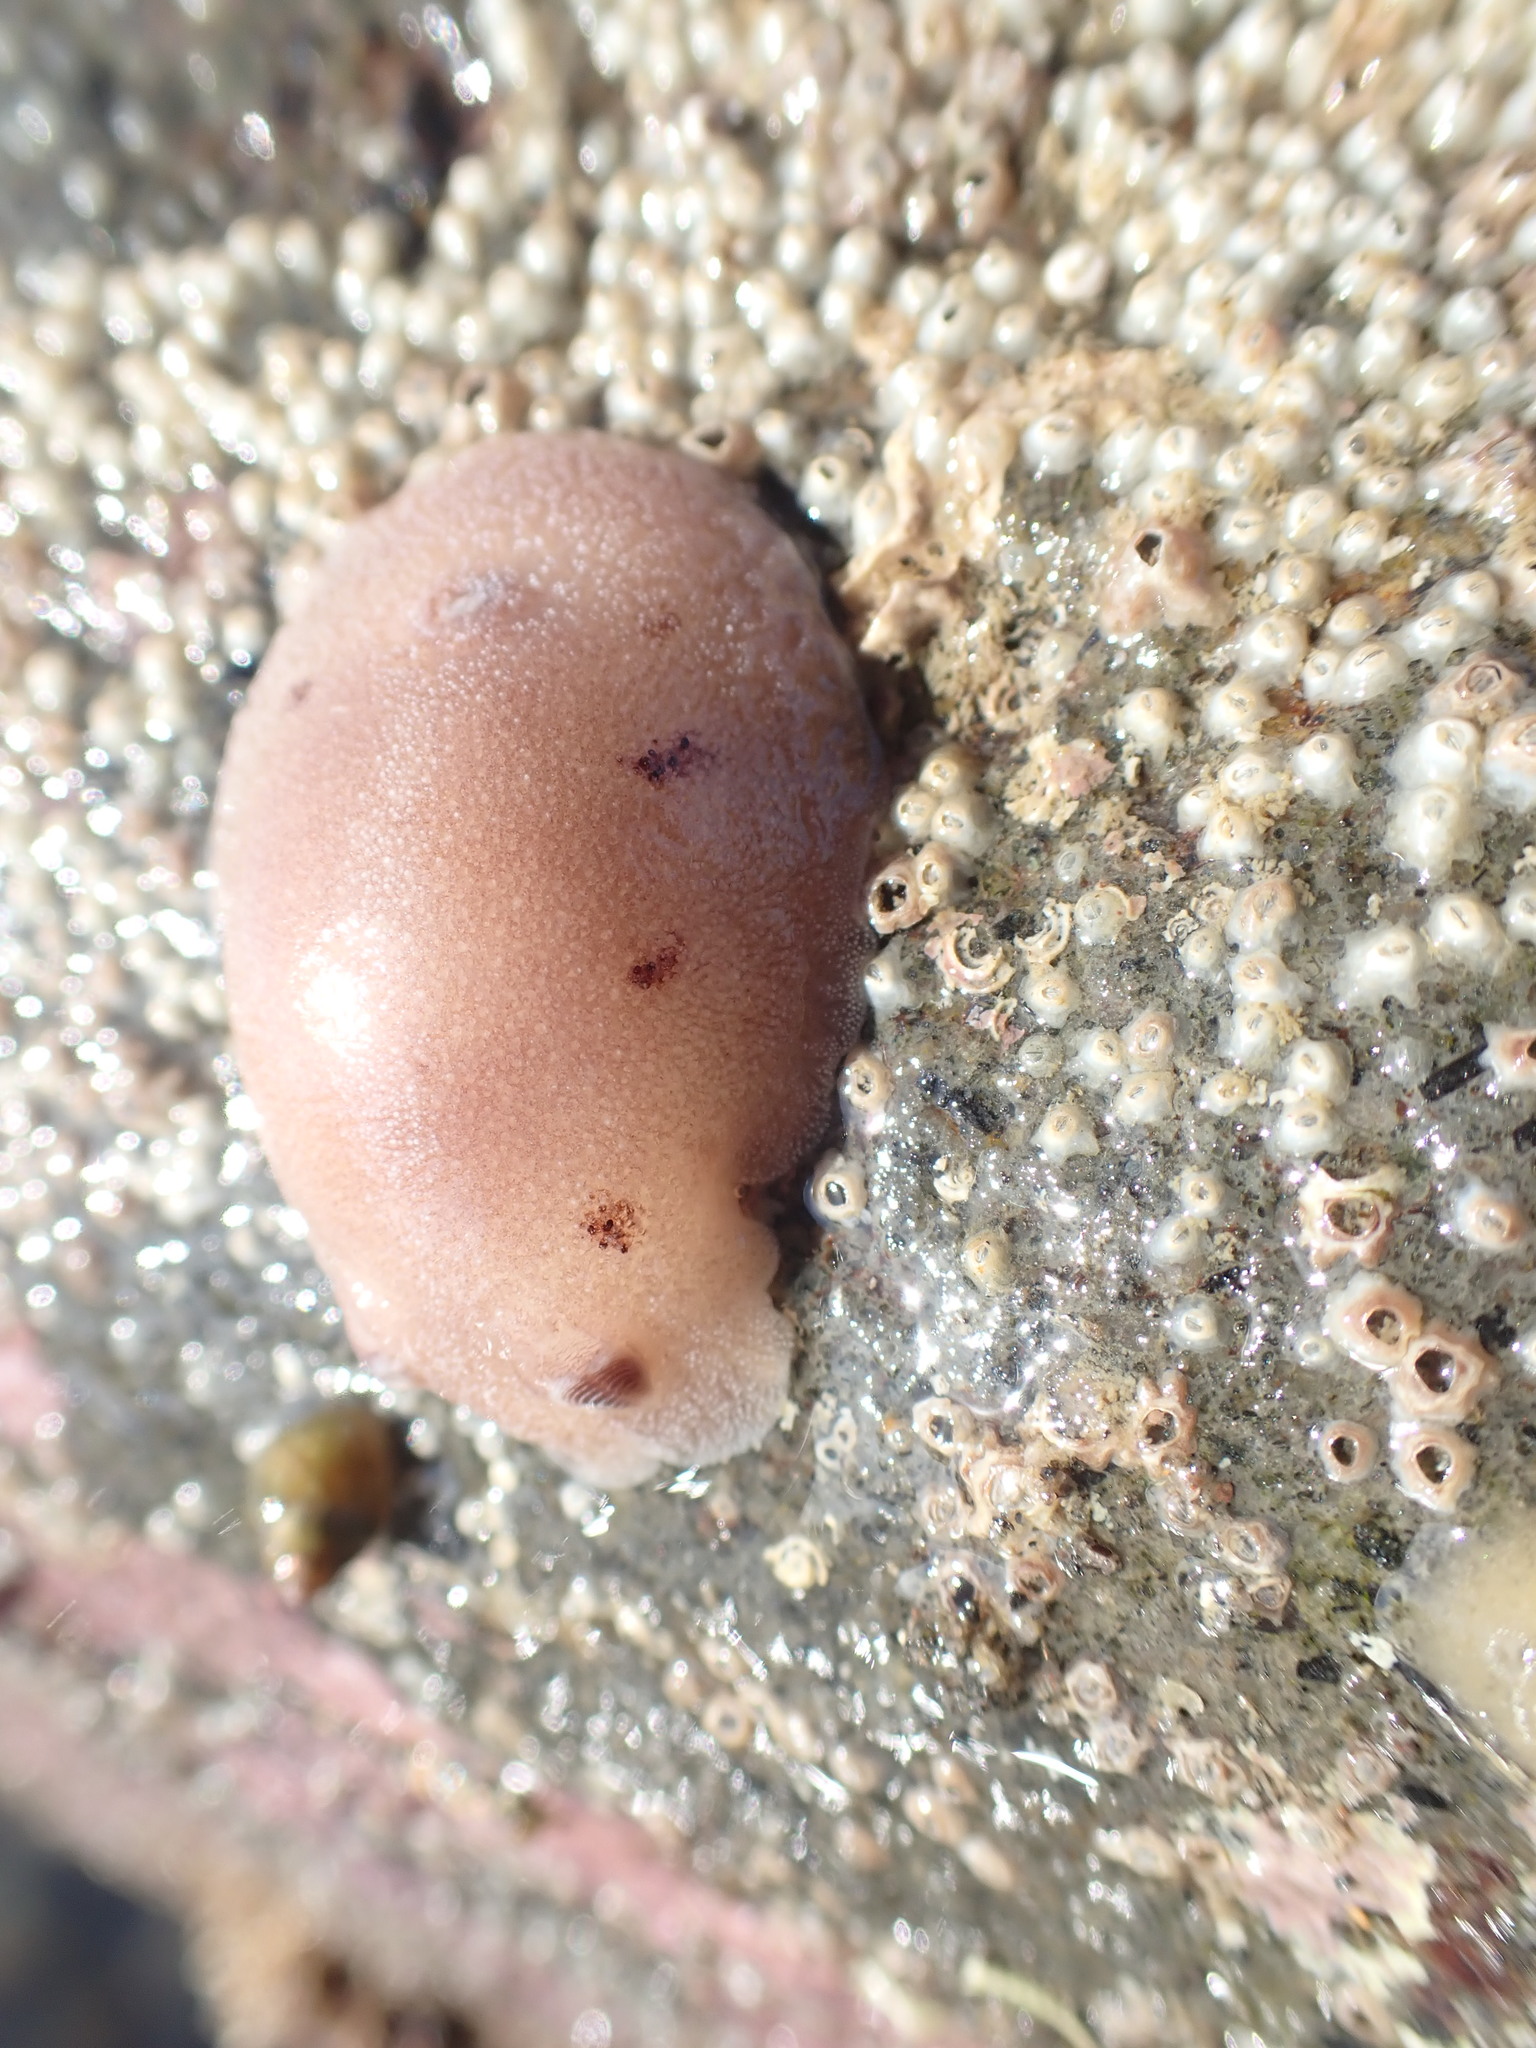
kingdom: Animalia
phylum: Mollusca
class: Gastropoda
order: Nudibranchia
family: Discodorididae
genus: Alloiodoris
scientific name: Alloiodoris lanuginata
